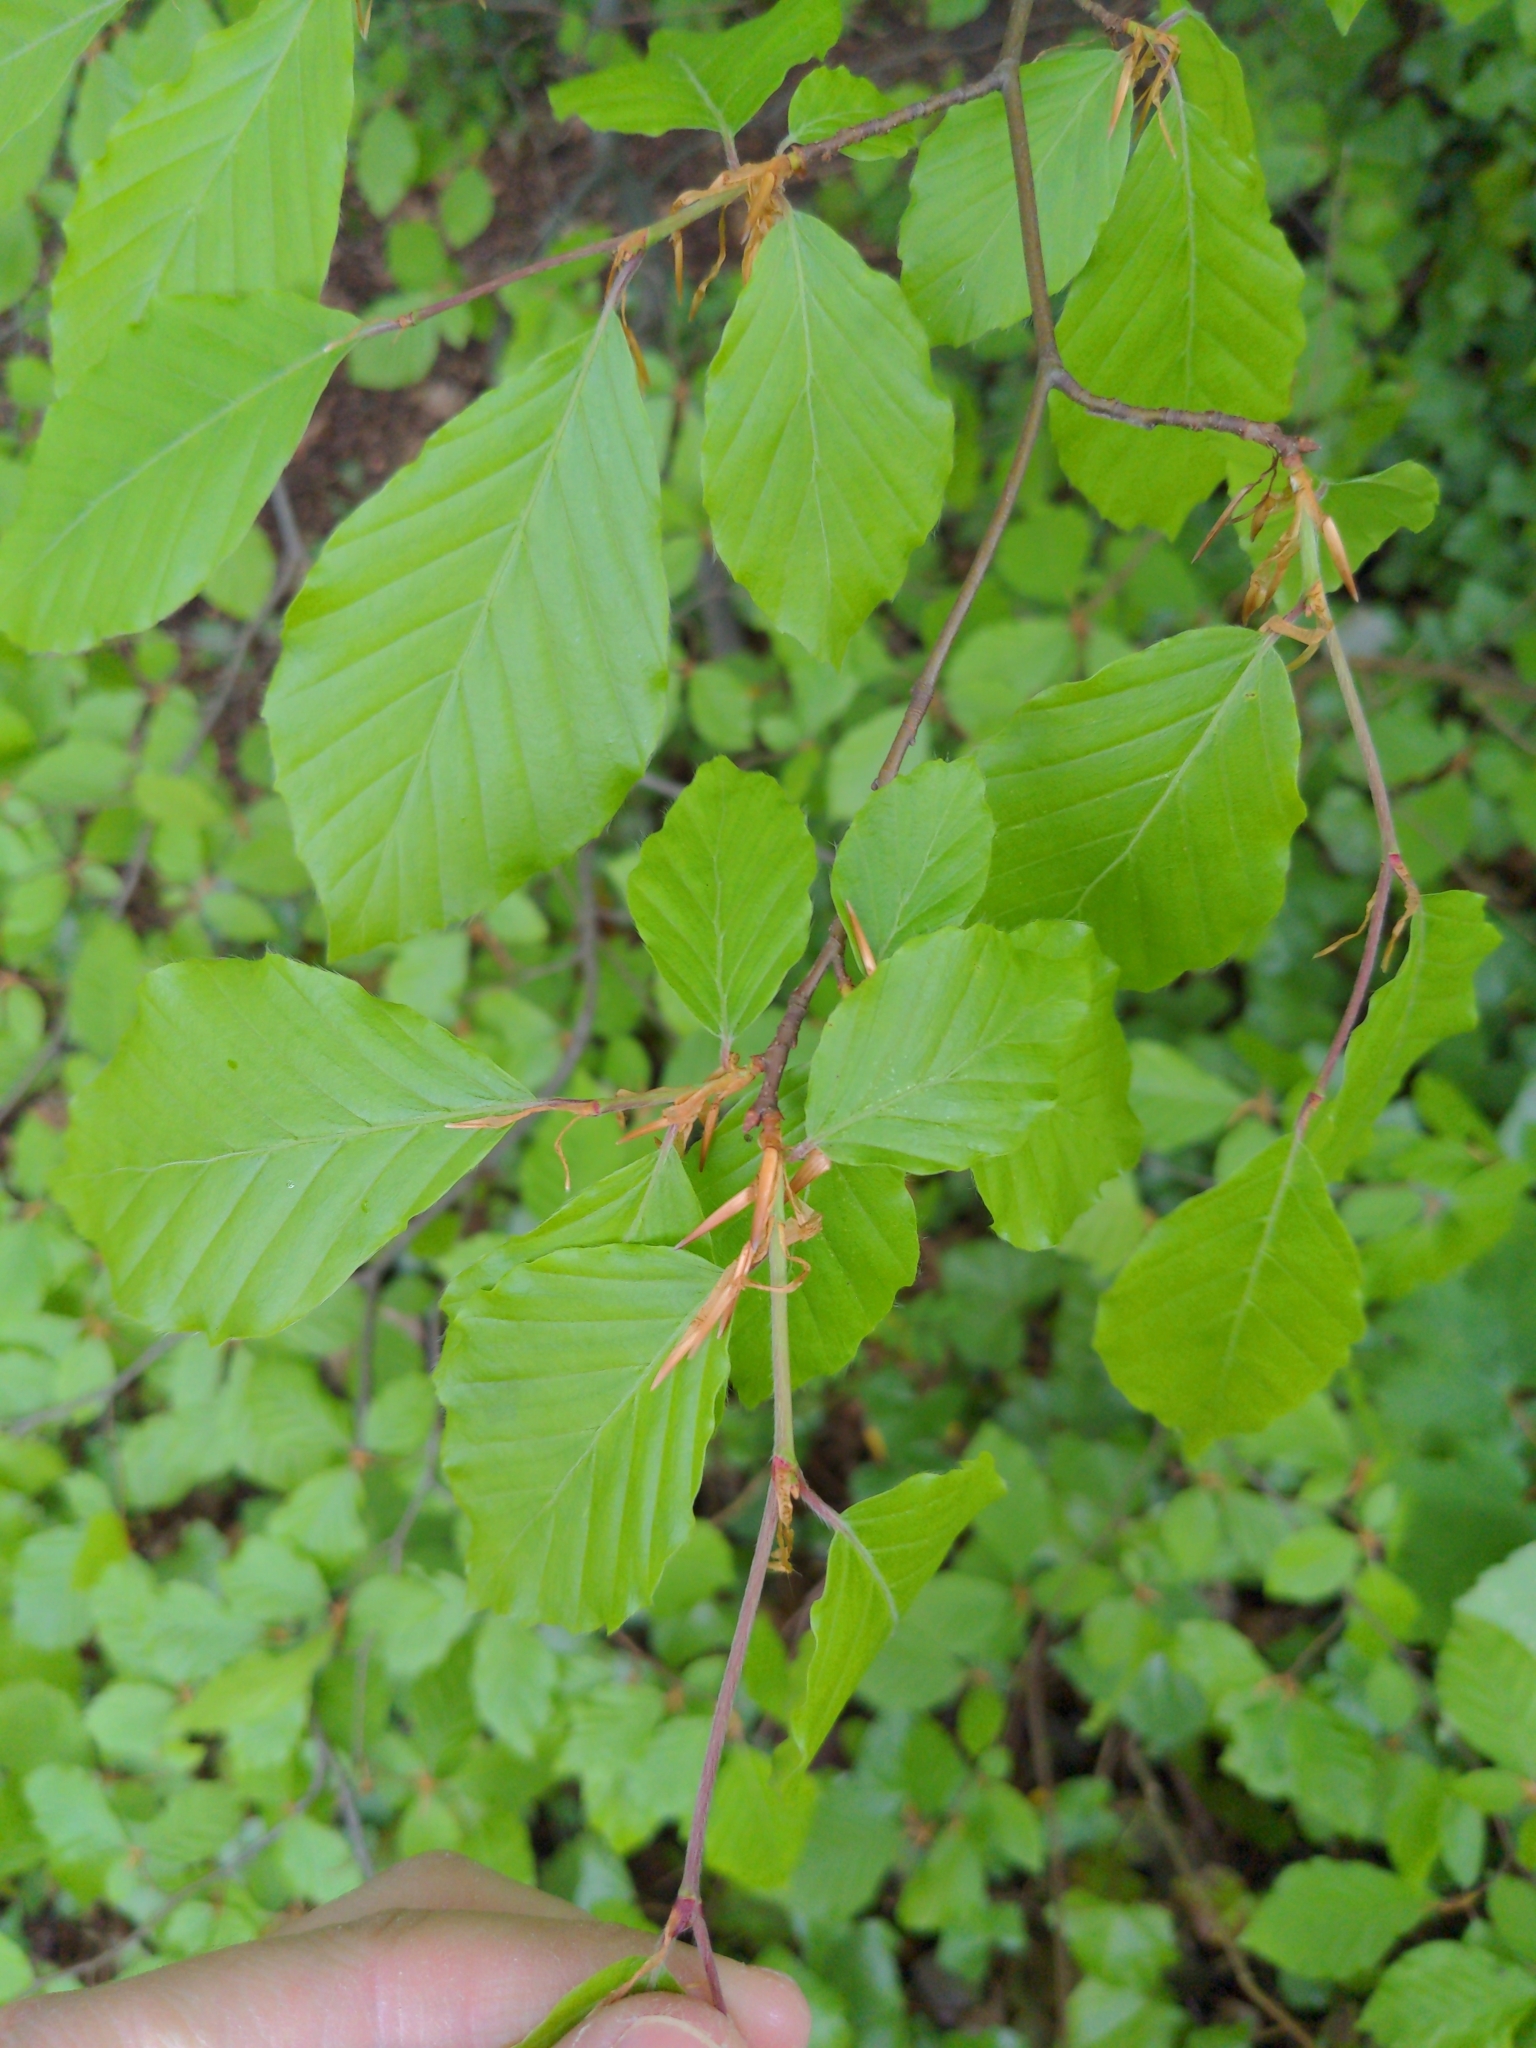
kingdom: Plantae
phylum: Tracheophyta
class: Magnoliopsida
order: Fagales
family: Fagaceae
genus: Fagus
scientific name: Fagus sylvatica
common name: Beech
